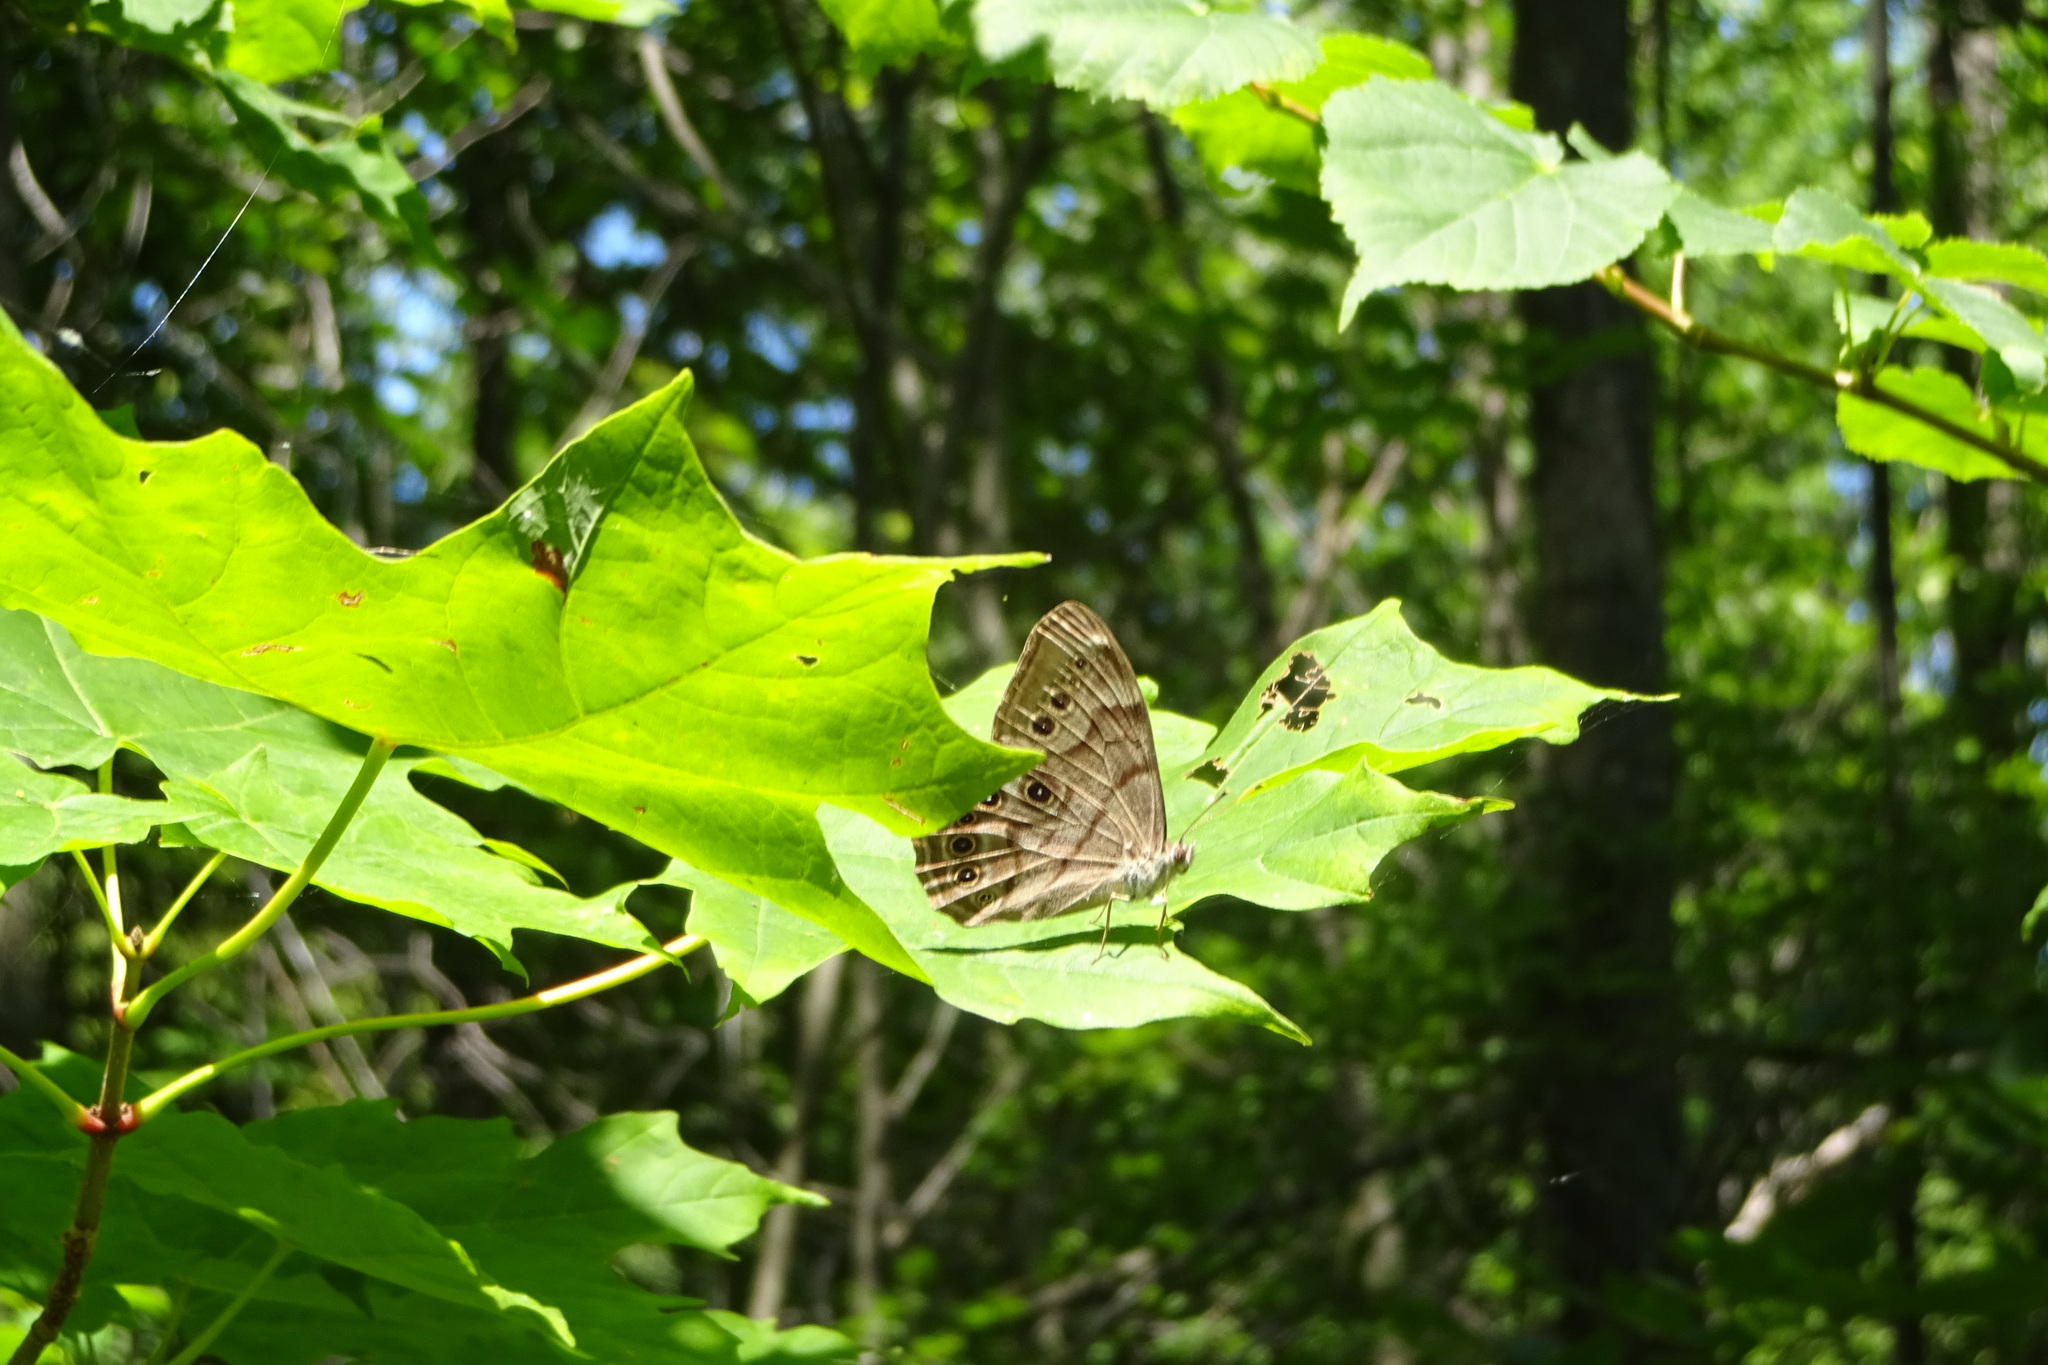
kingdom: Animalia
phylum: Arthropoda
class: Insecta
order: Lepidoptera
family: Nymphalidae
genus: Lethe
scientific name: Lethe anthedon
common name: Northern pearly-eye
